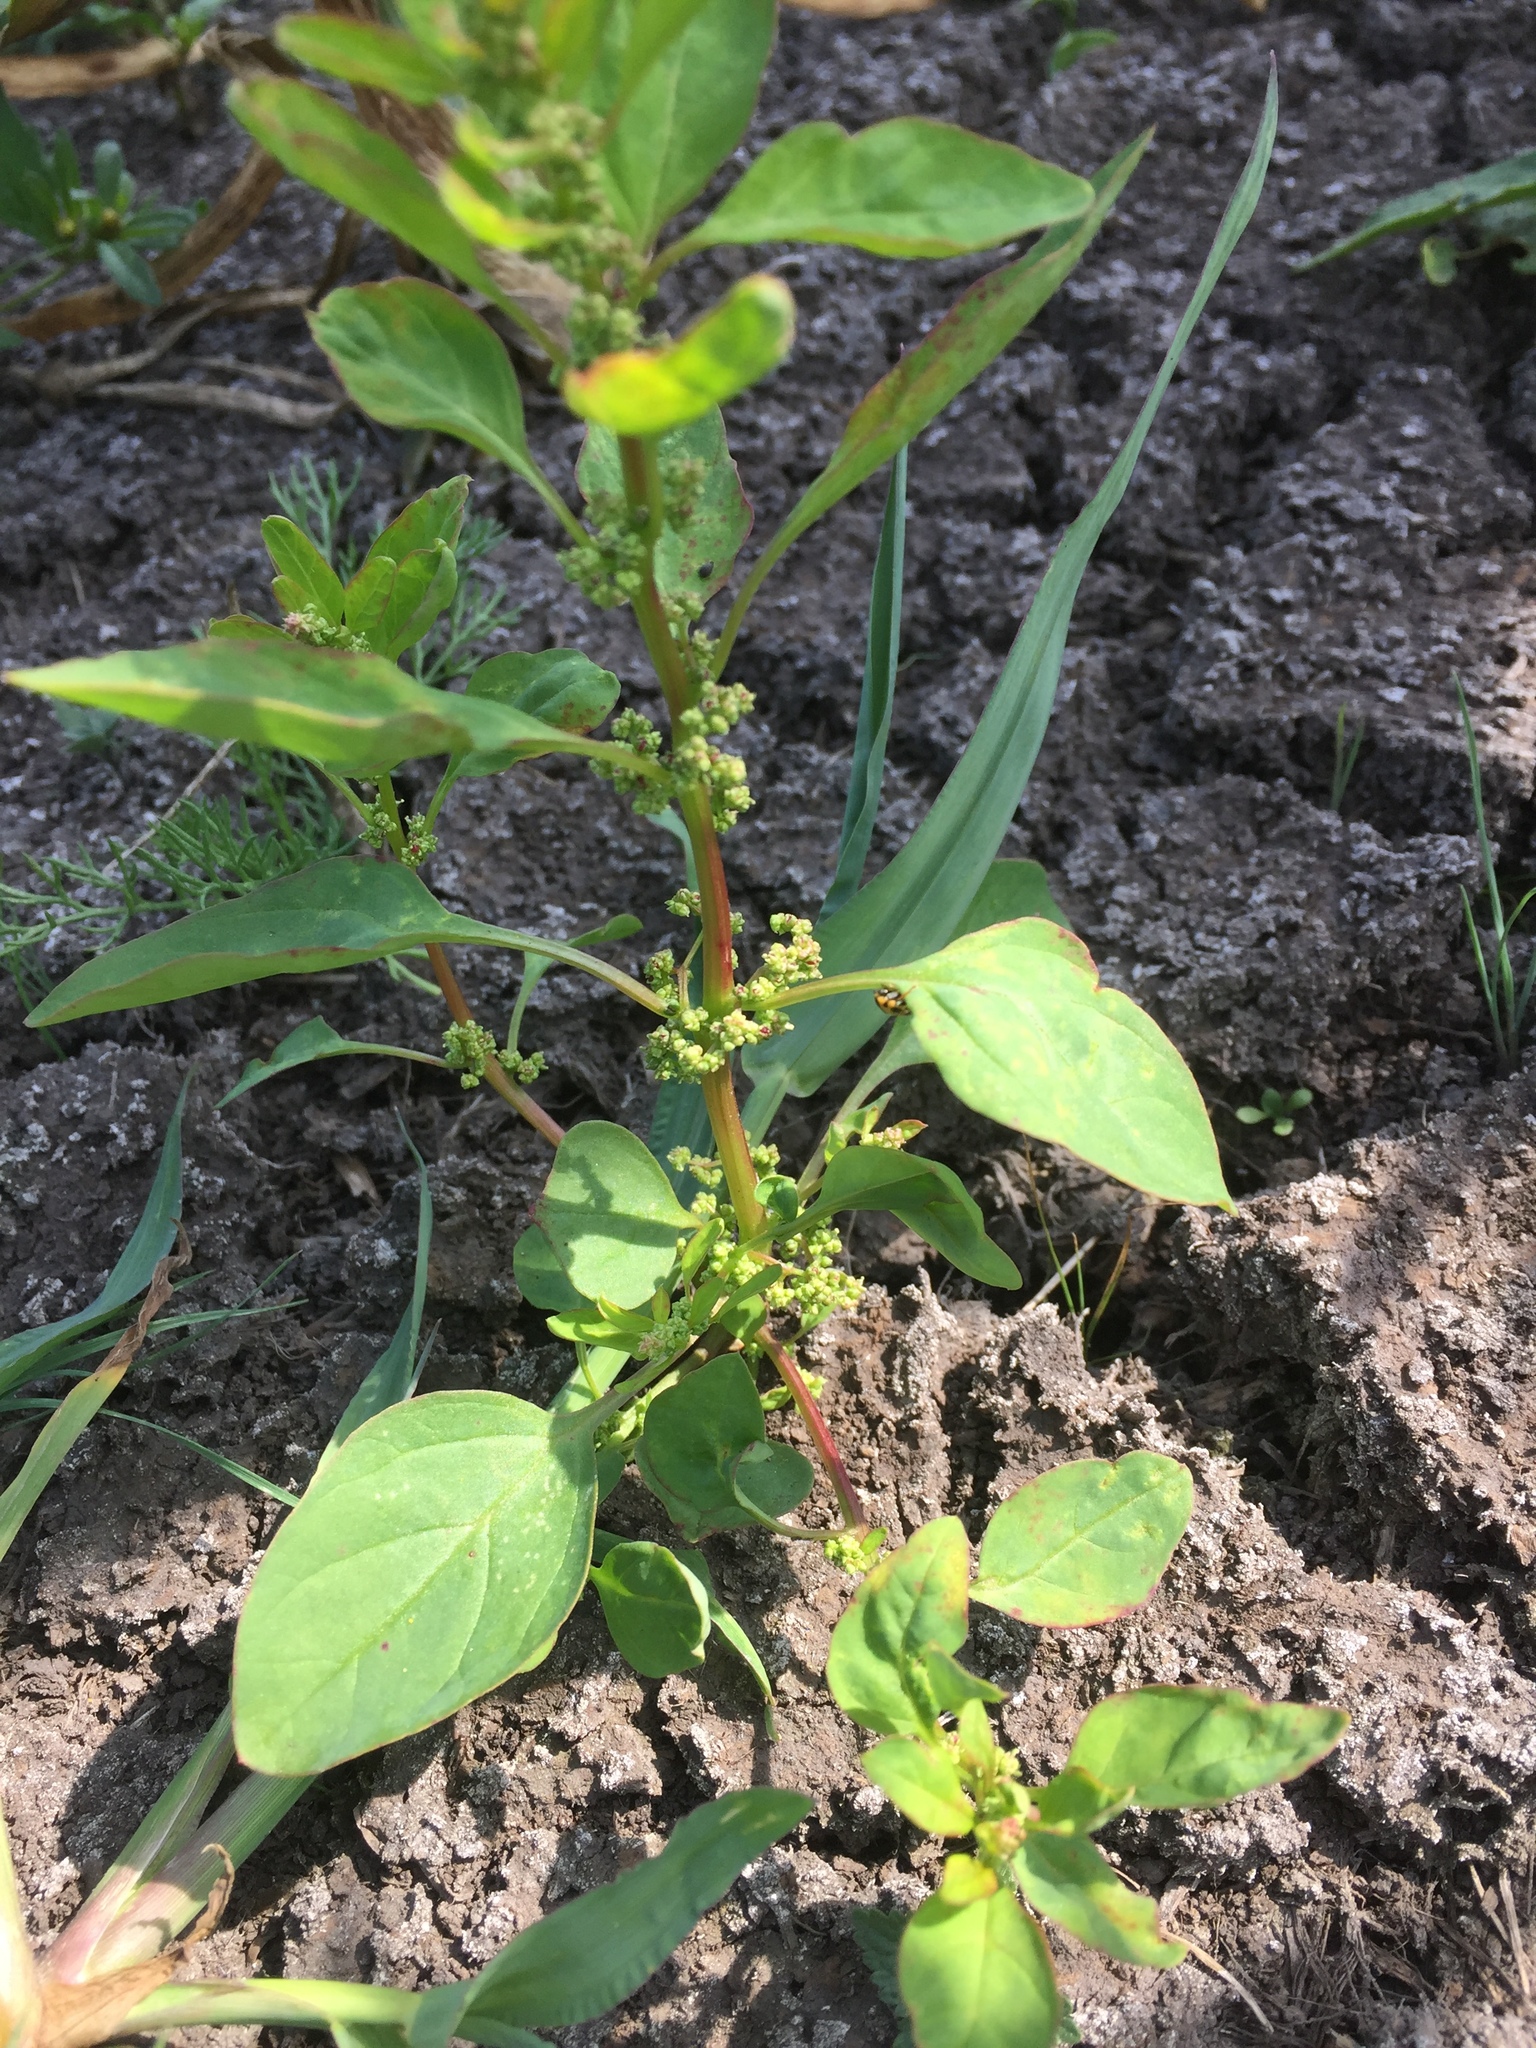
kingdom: Plantae
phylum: Tracheophyta
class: Magnoliopsida
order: Caryophyllales
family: Amaranthaceae
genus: Lipandra
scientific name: Lipandra polysperma
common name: Many-seed goosefoot
